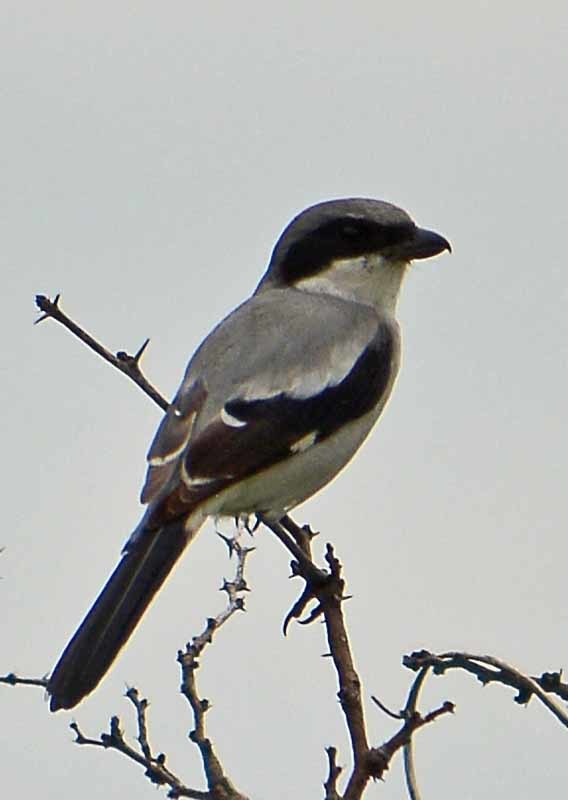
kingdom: Animalia
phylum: Chordata
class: Aves
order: Passeriformes
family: Laniidae
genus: Lanius
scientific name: Lanius ludovicianus
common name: Loggerhead shrike
